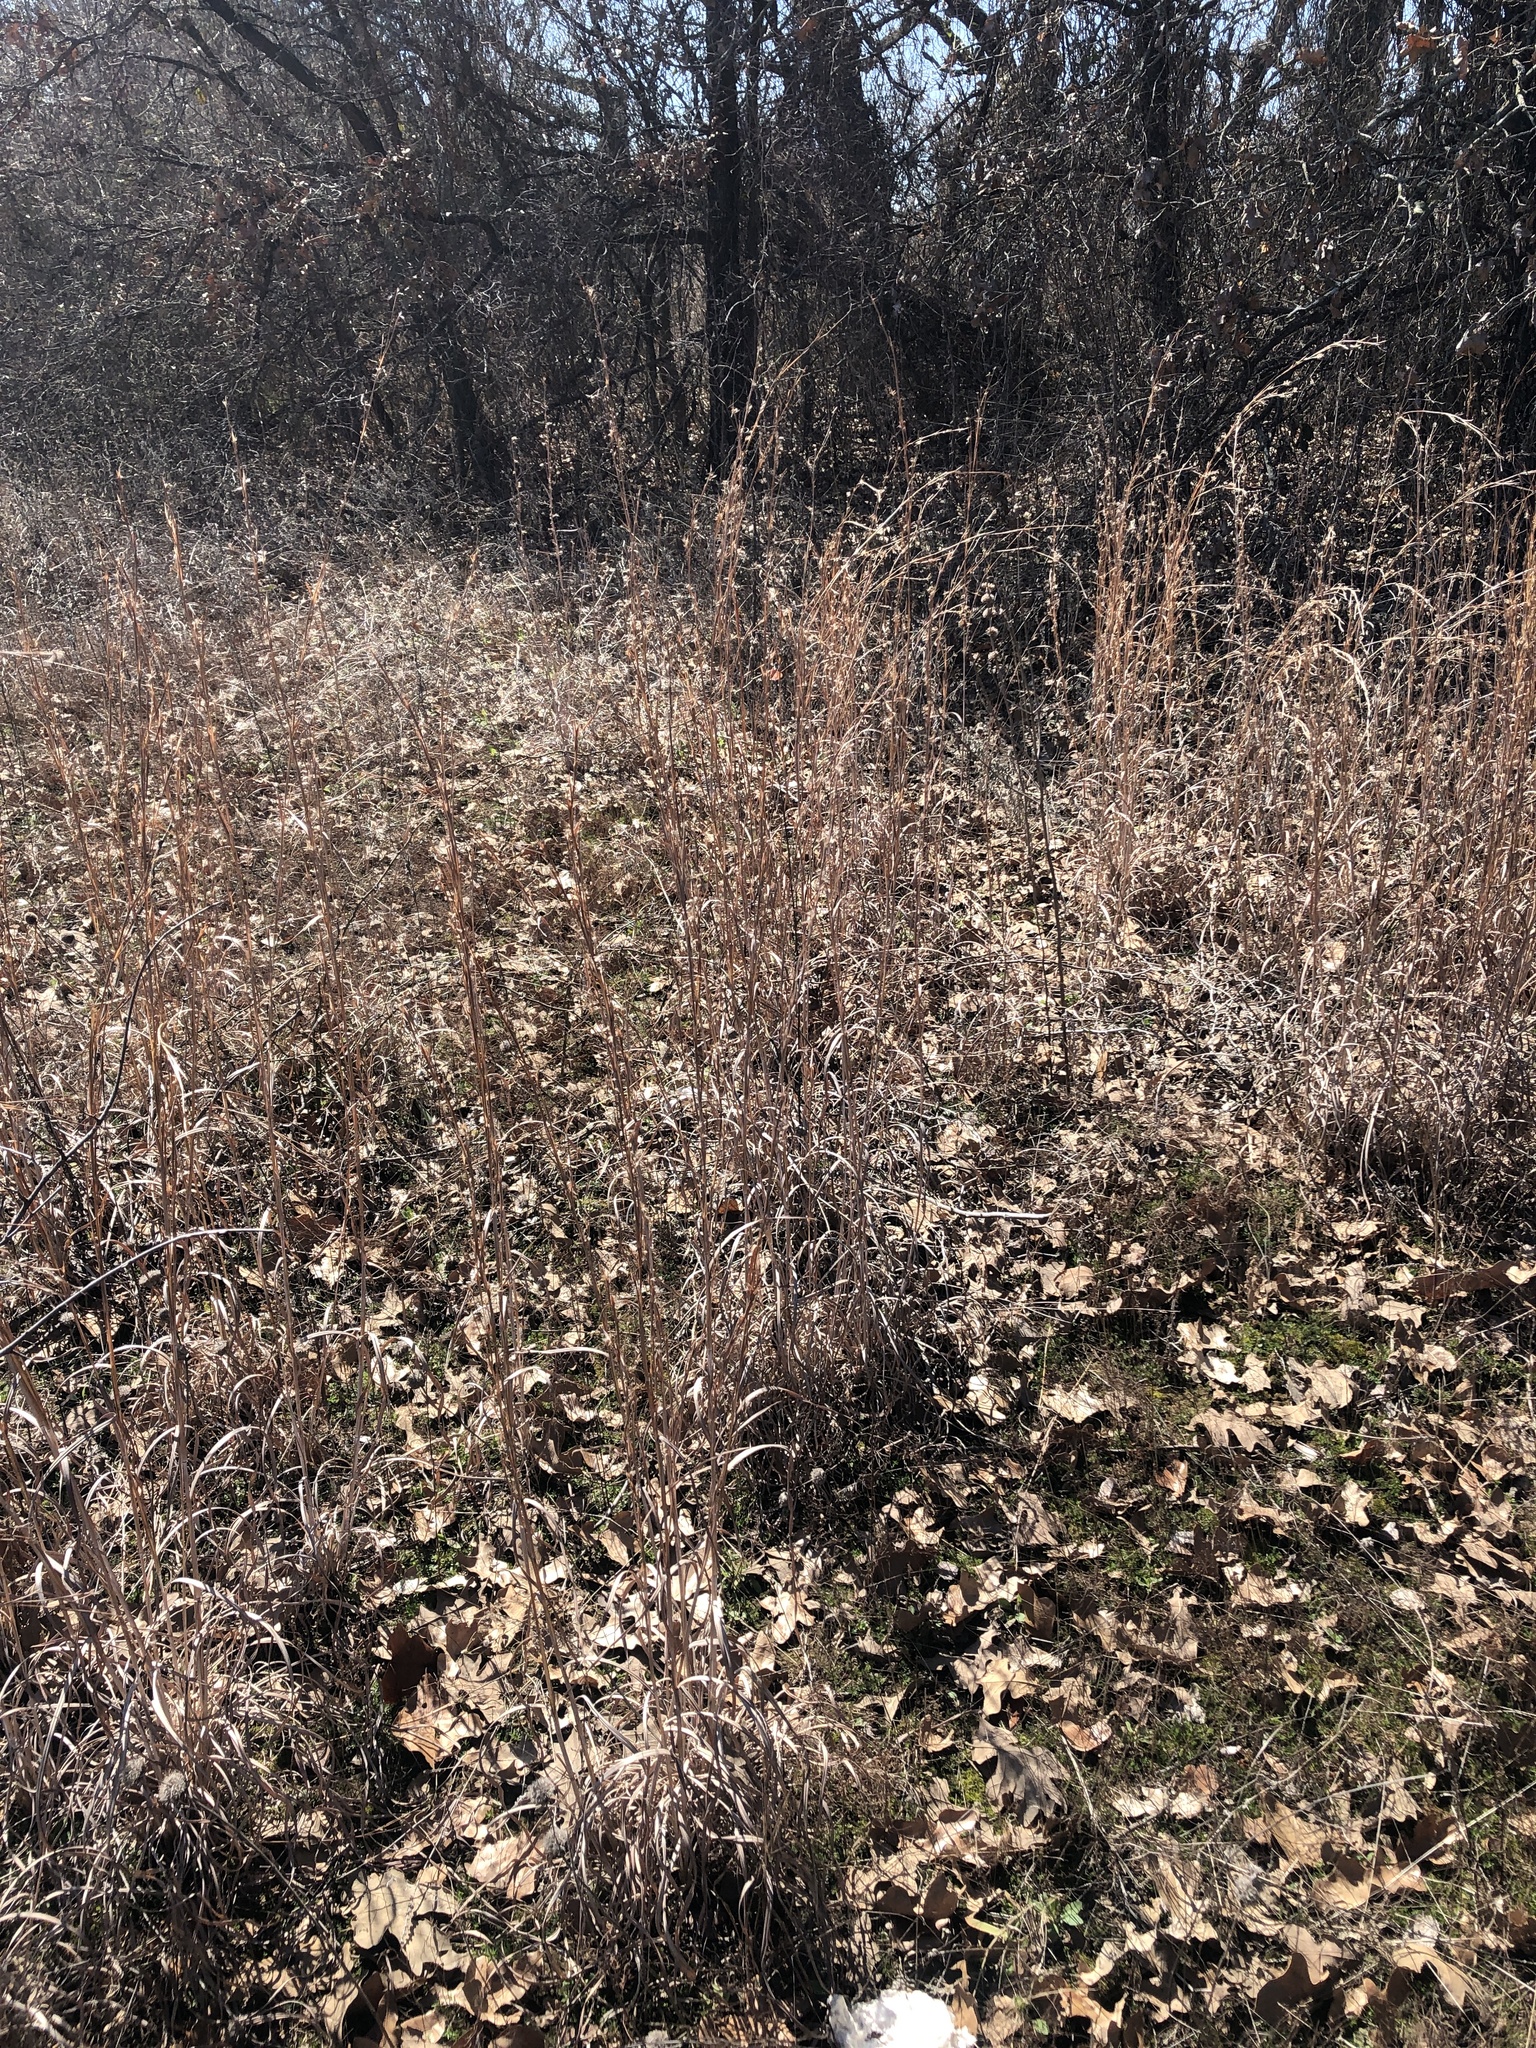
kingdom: Plantae
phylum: Tracheophyta
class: Liliopsida
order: Poales
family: Poaceae
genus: Schizachyrium
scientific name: Schizachyrium scoparium
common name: Little bluestem
